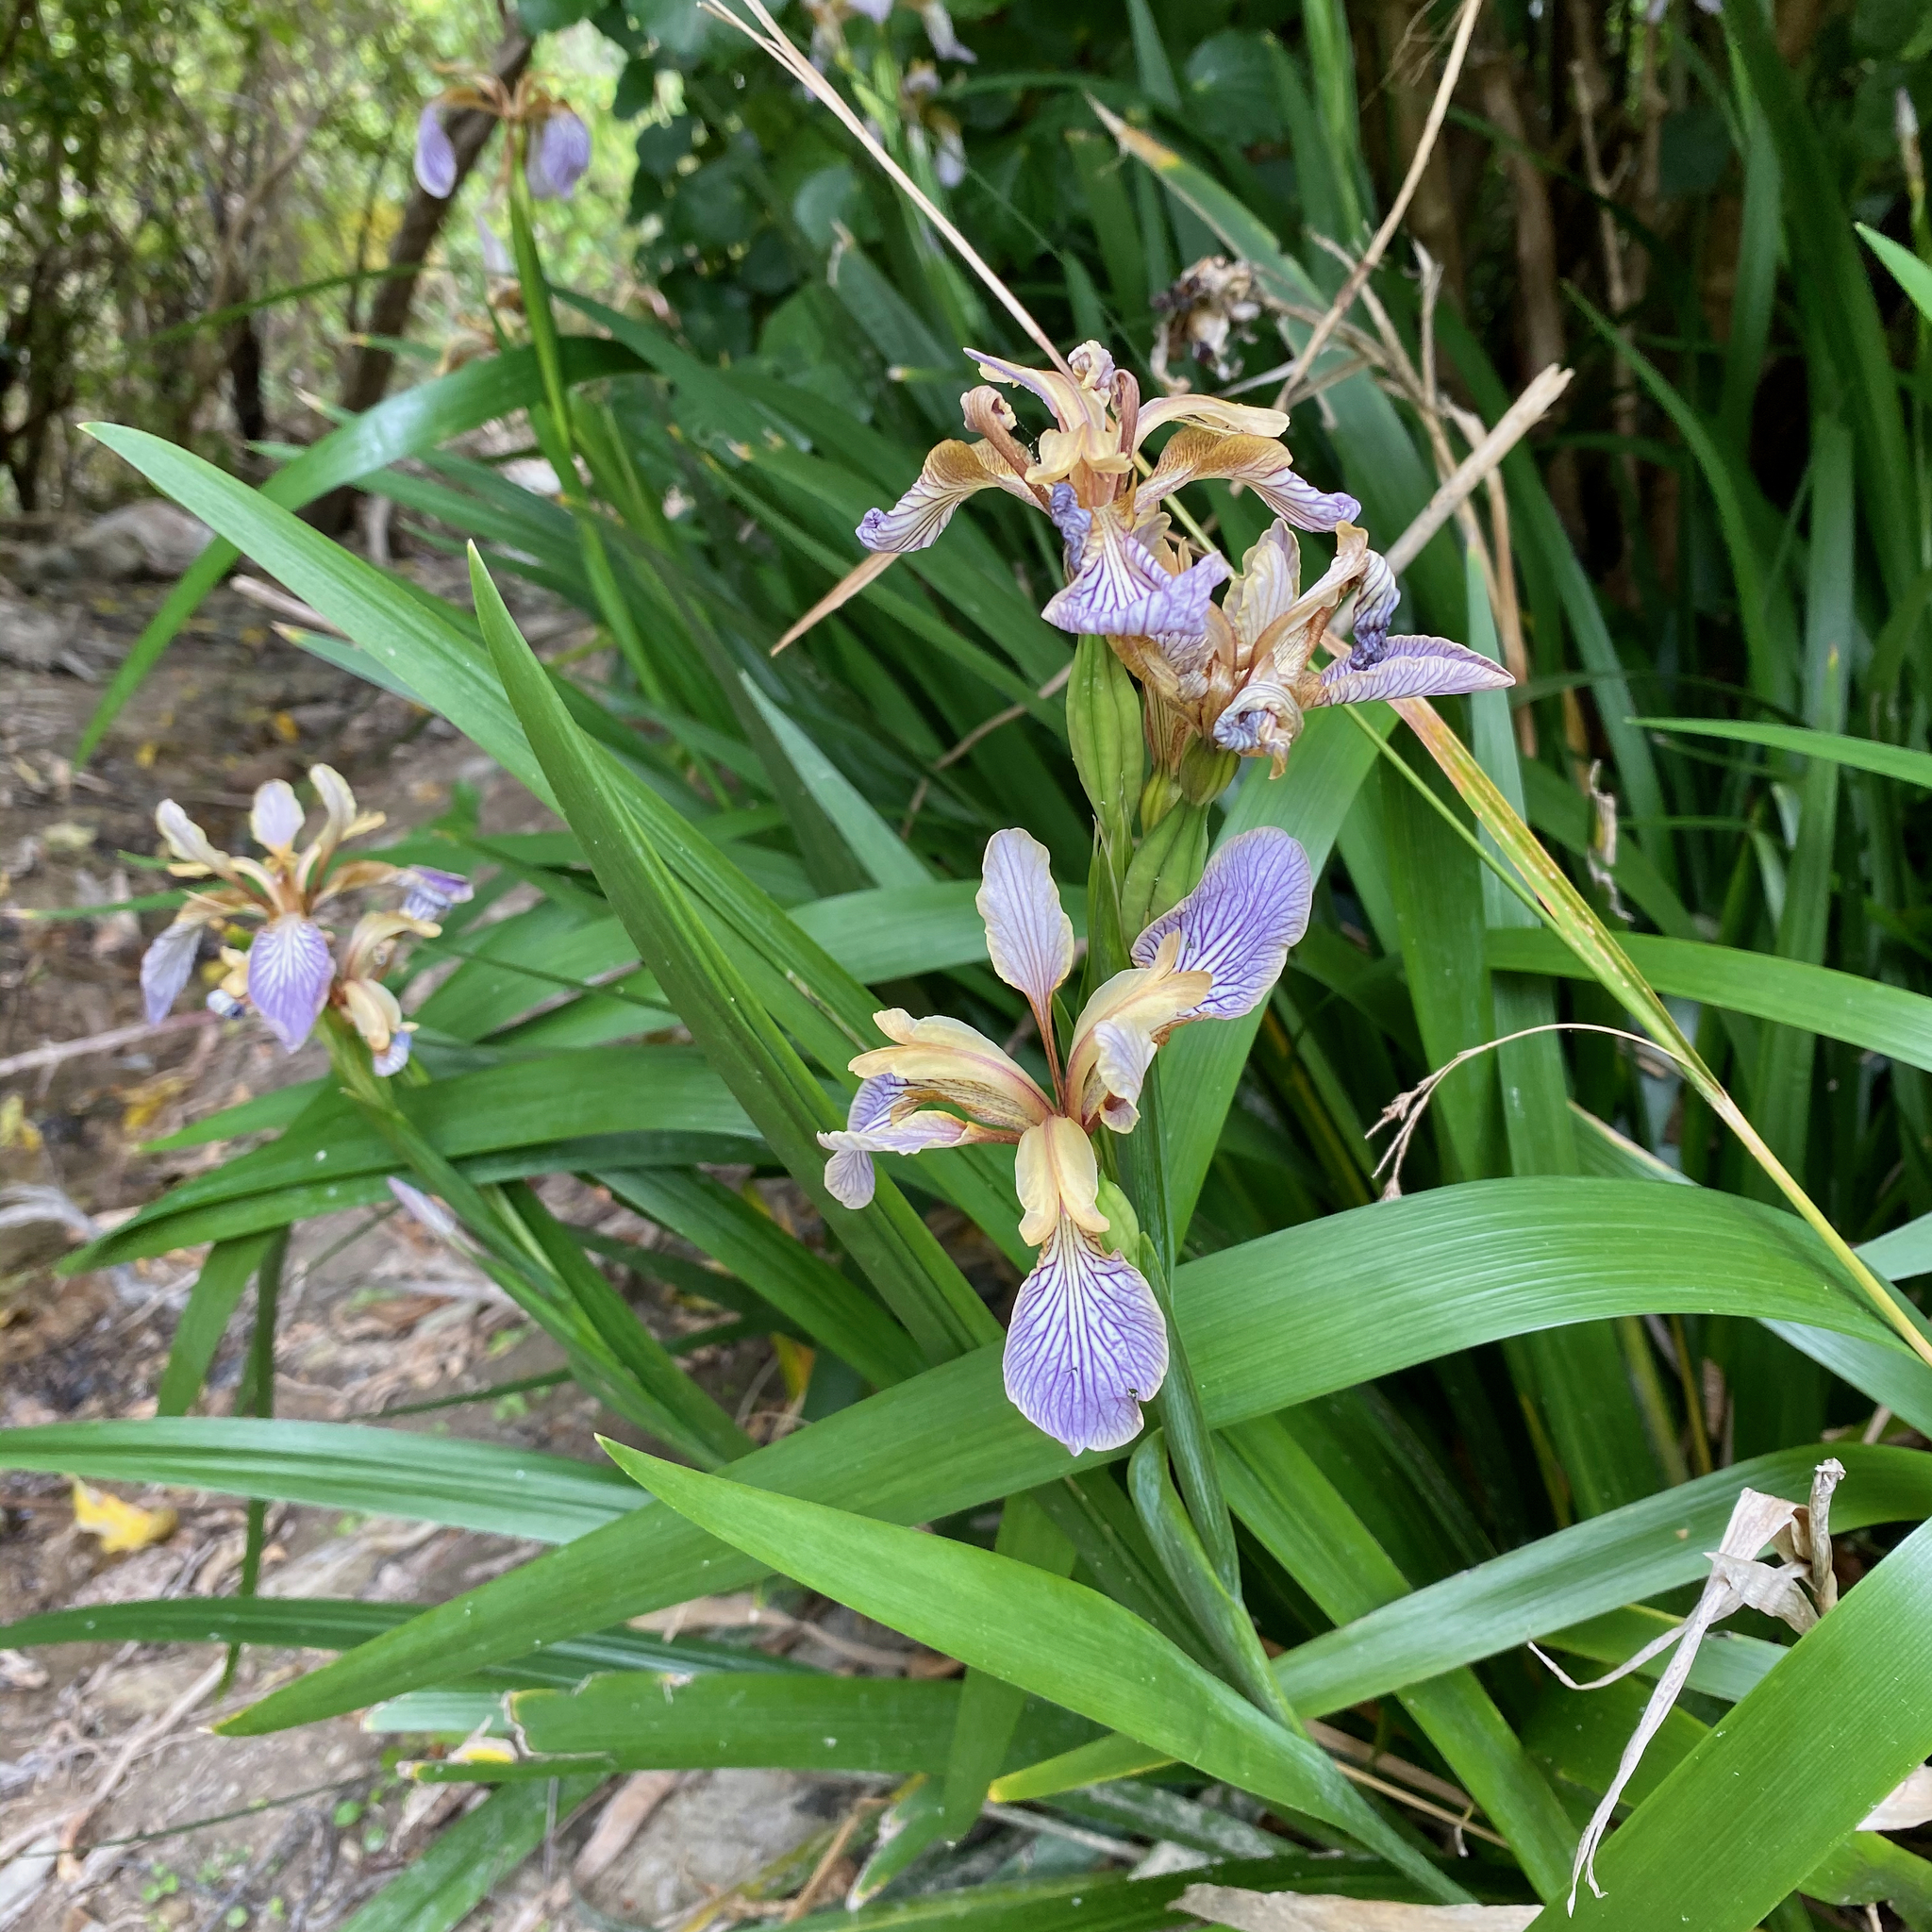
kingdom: Plantae
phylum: Tracheophyta
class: Liliopsida
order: Asparagales
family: Iridaceae
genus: Iris
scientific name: Iris foetidissima
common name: Stinking iris
